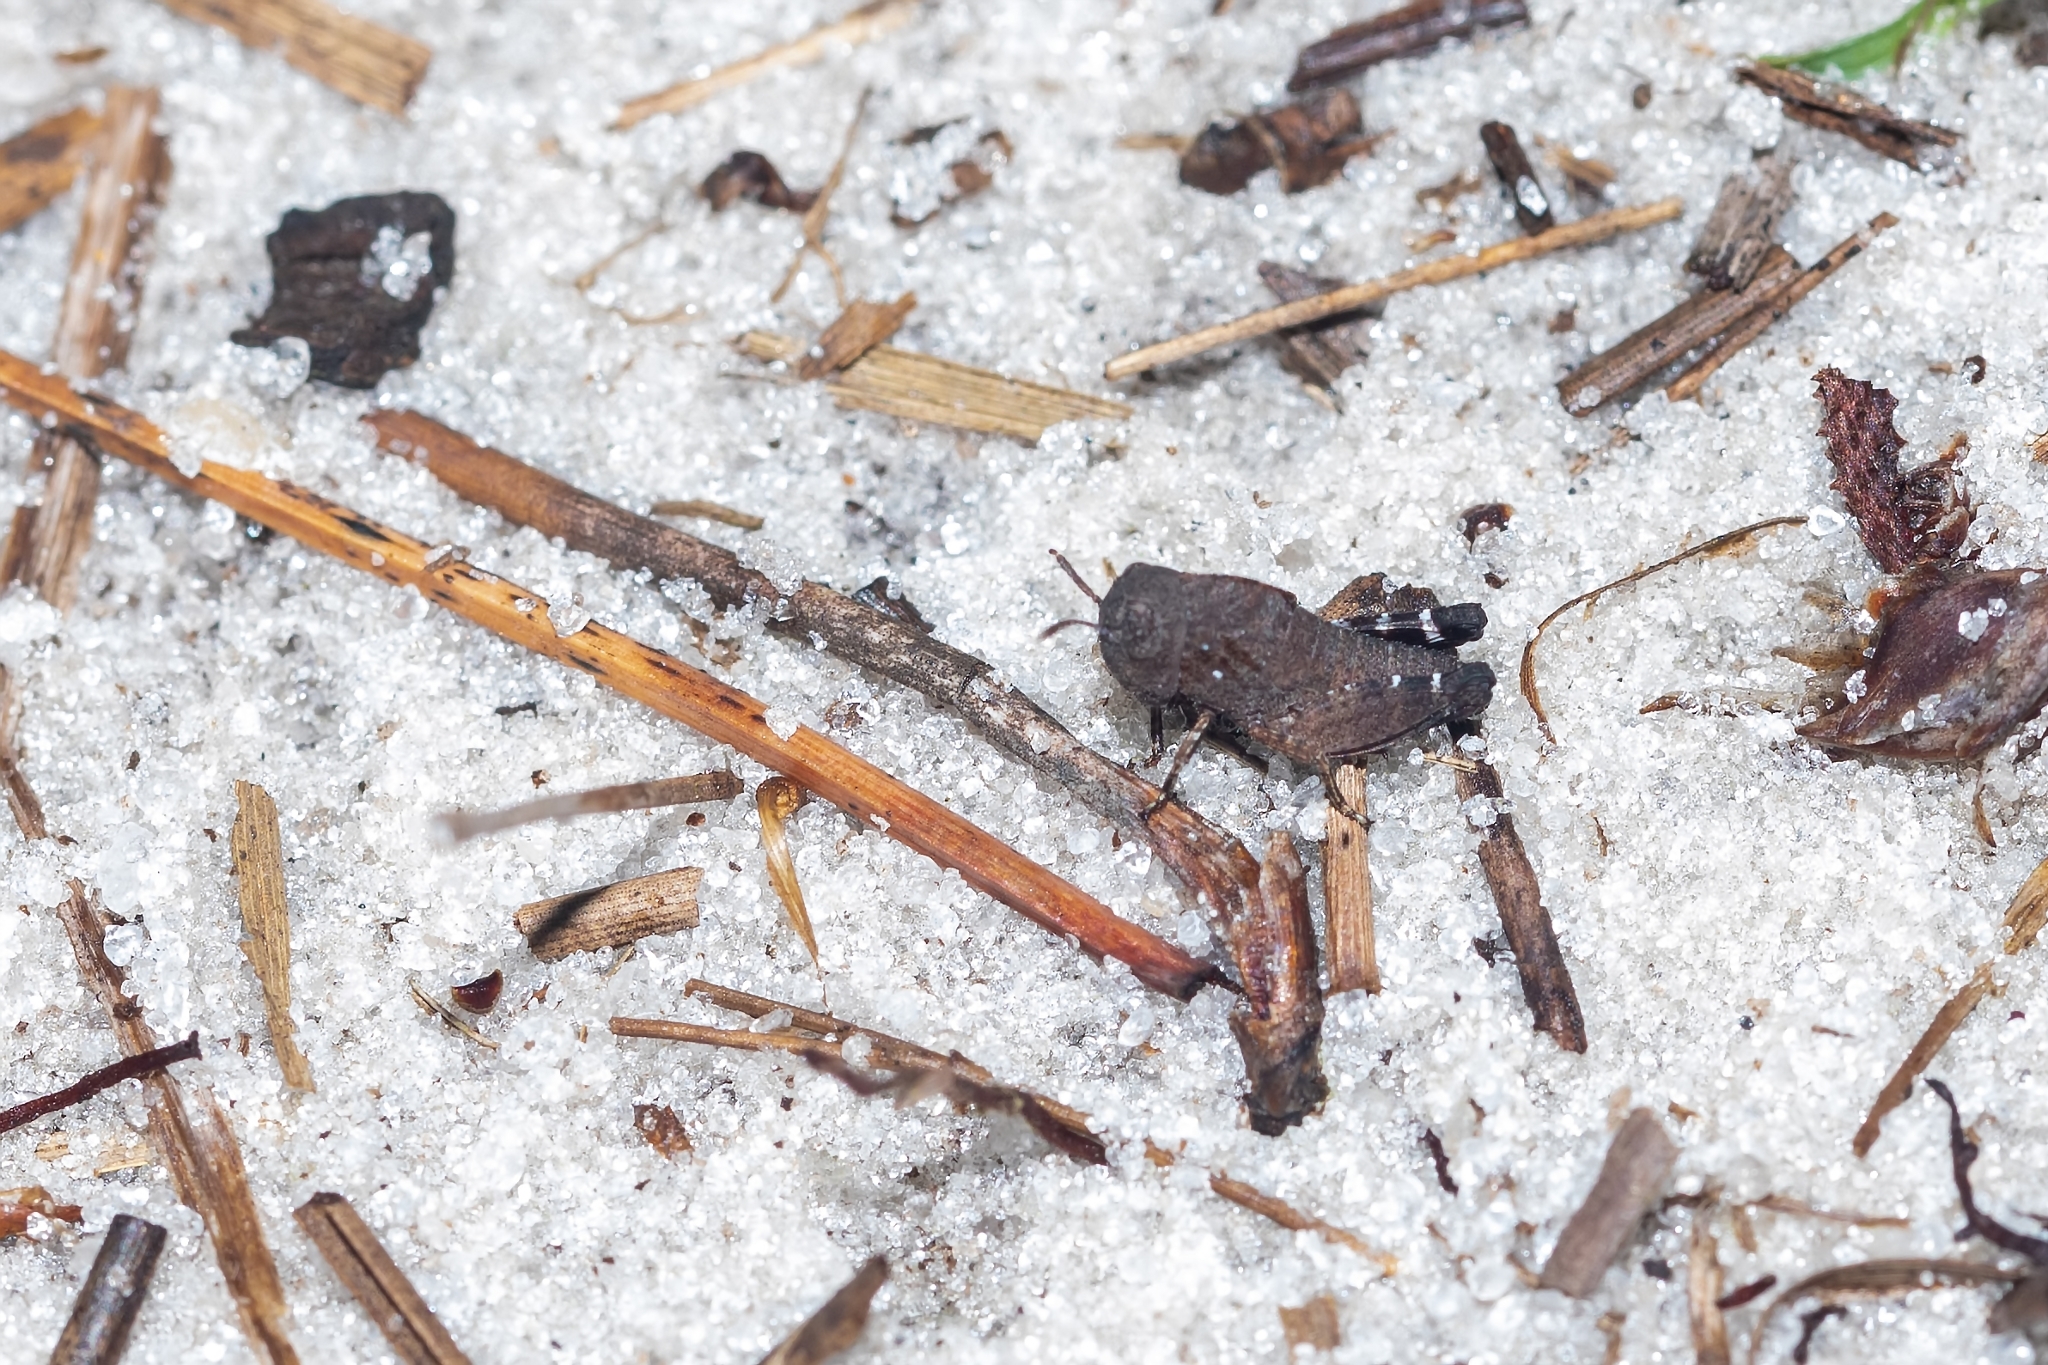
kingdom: Animalia
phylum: Arthropoda
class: Insecta
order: Orthoptera
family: Acrididae
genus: Arphia
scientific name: Arphia granulata
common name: Southern yellow-winged grasshopper
